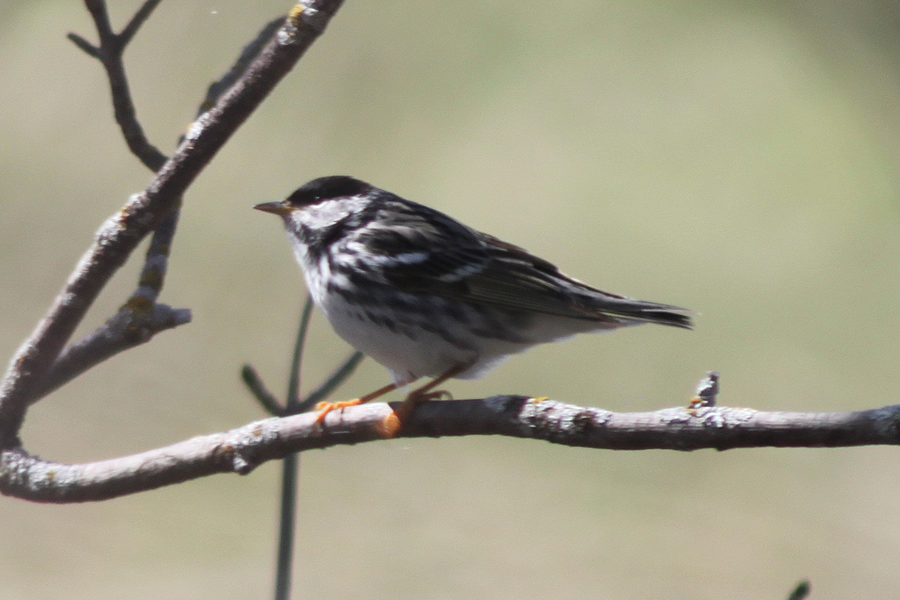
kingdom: Animalia
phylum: Chordata
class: Aves
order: Passeriformes
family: Parulidae
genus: Setophaga
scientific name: Setophaga striata
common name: Blackpoll warbler
